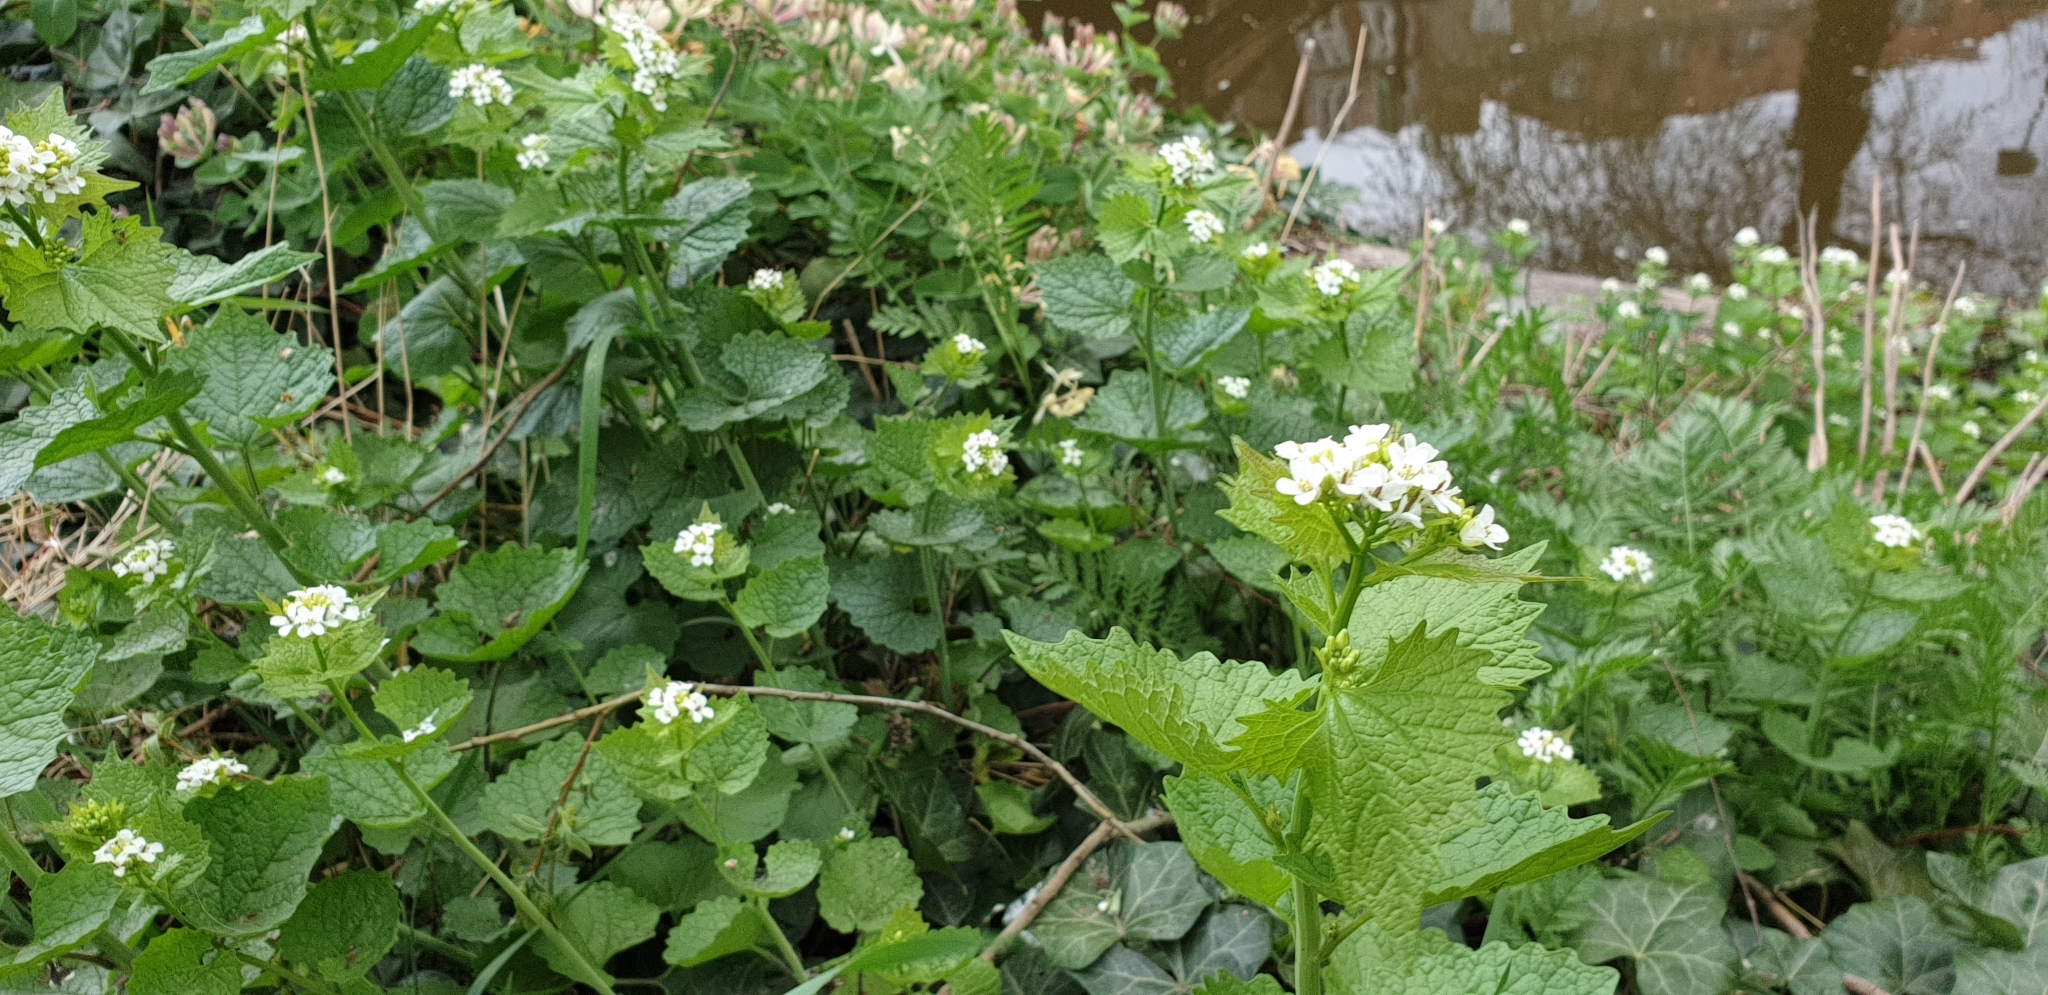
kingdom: Plantae
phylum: Tracheophyta
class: Magnoliopsida
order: Brassicales
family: Brassicaceae
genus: Alliaria
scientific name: Alliaria petiolata
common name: Garlic mustard
